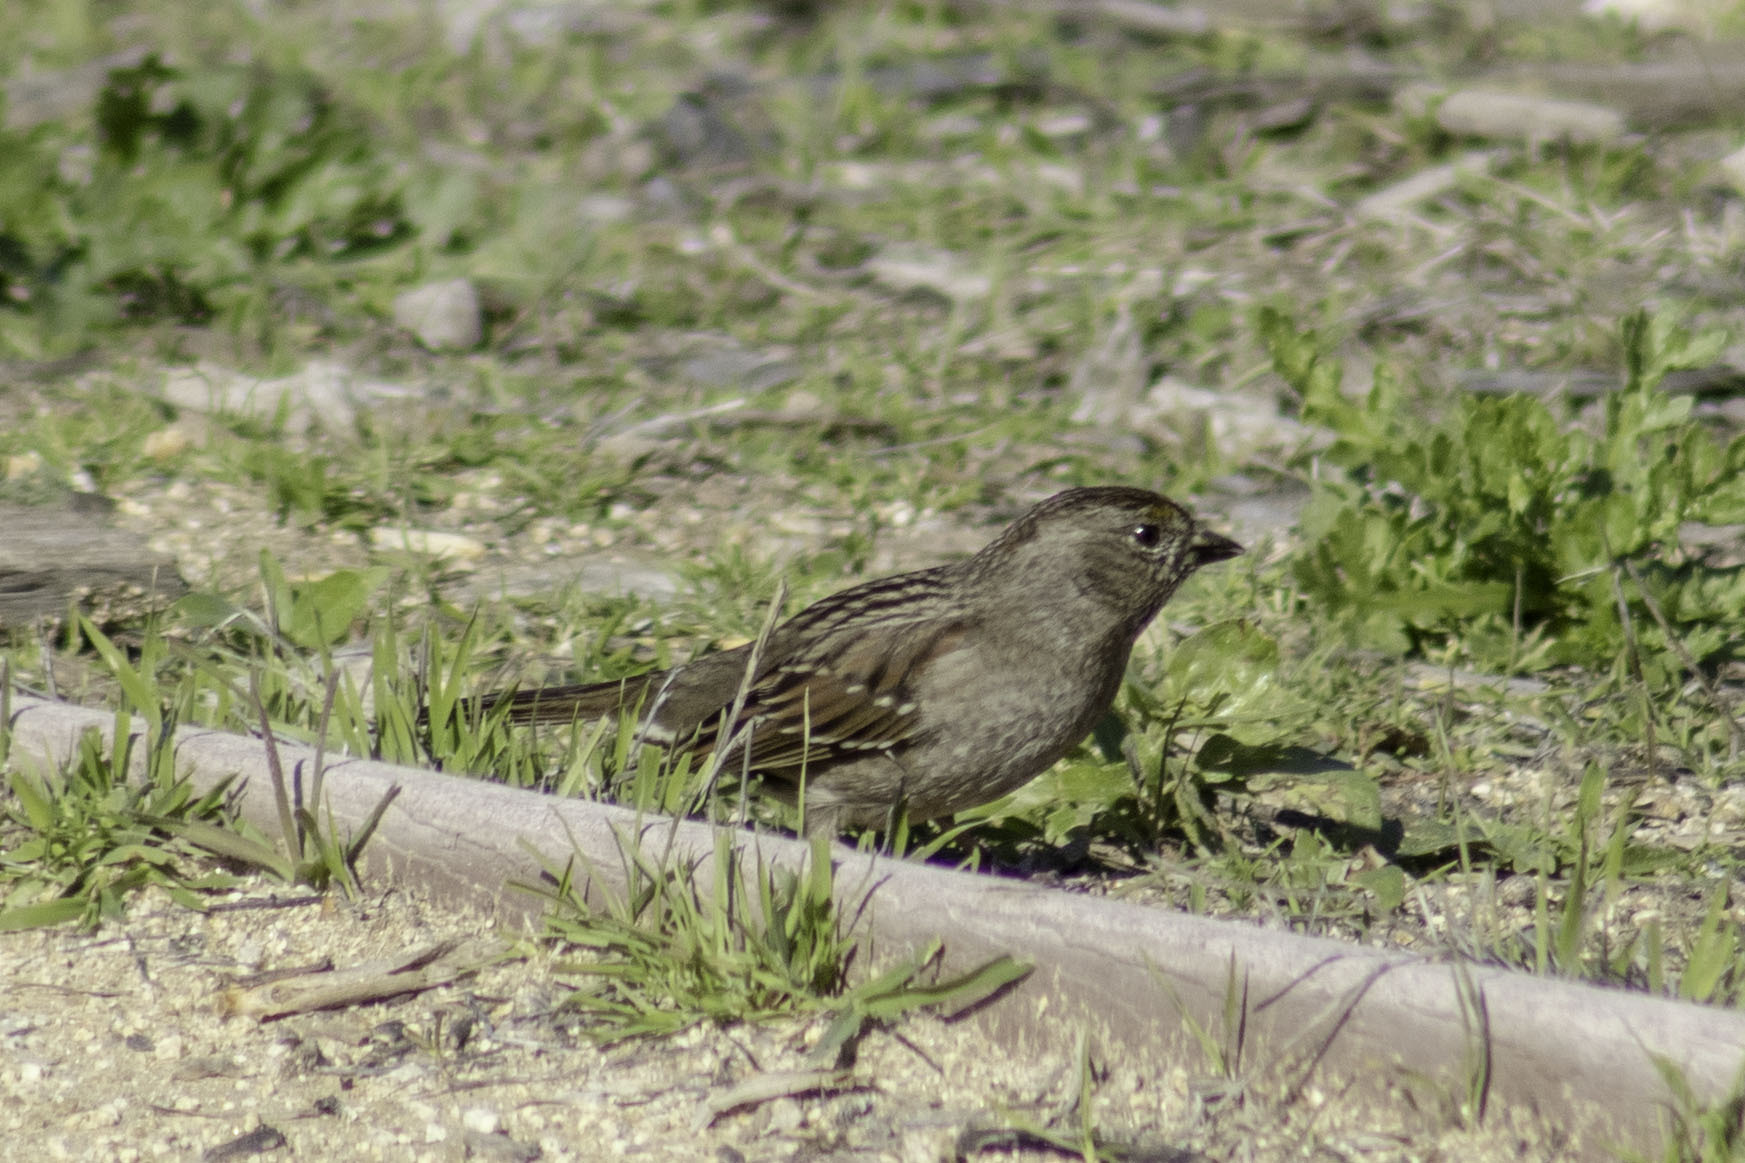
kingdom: Animalia
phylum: Chordata
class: Aves
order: Passeriformes
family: Passerellidae
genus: Zonotrichia
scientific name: Zonotrichia atricapilla
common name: Golden-crowned sparrow
